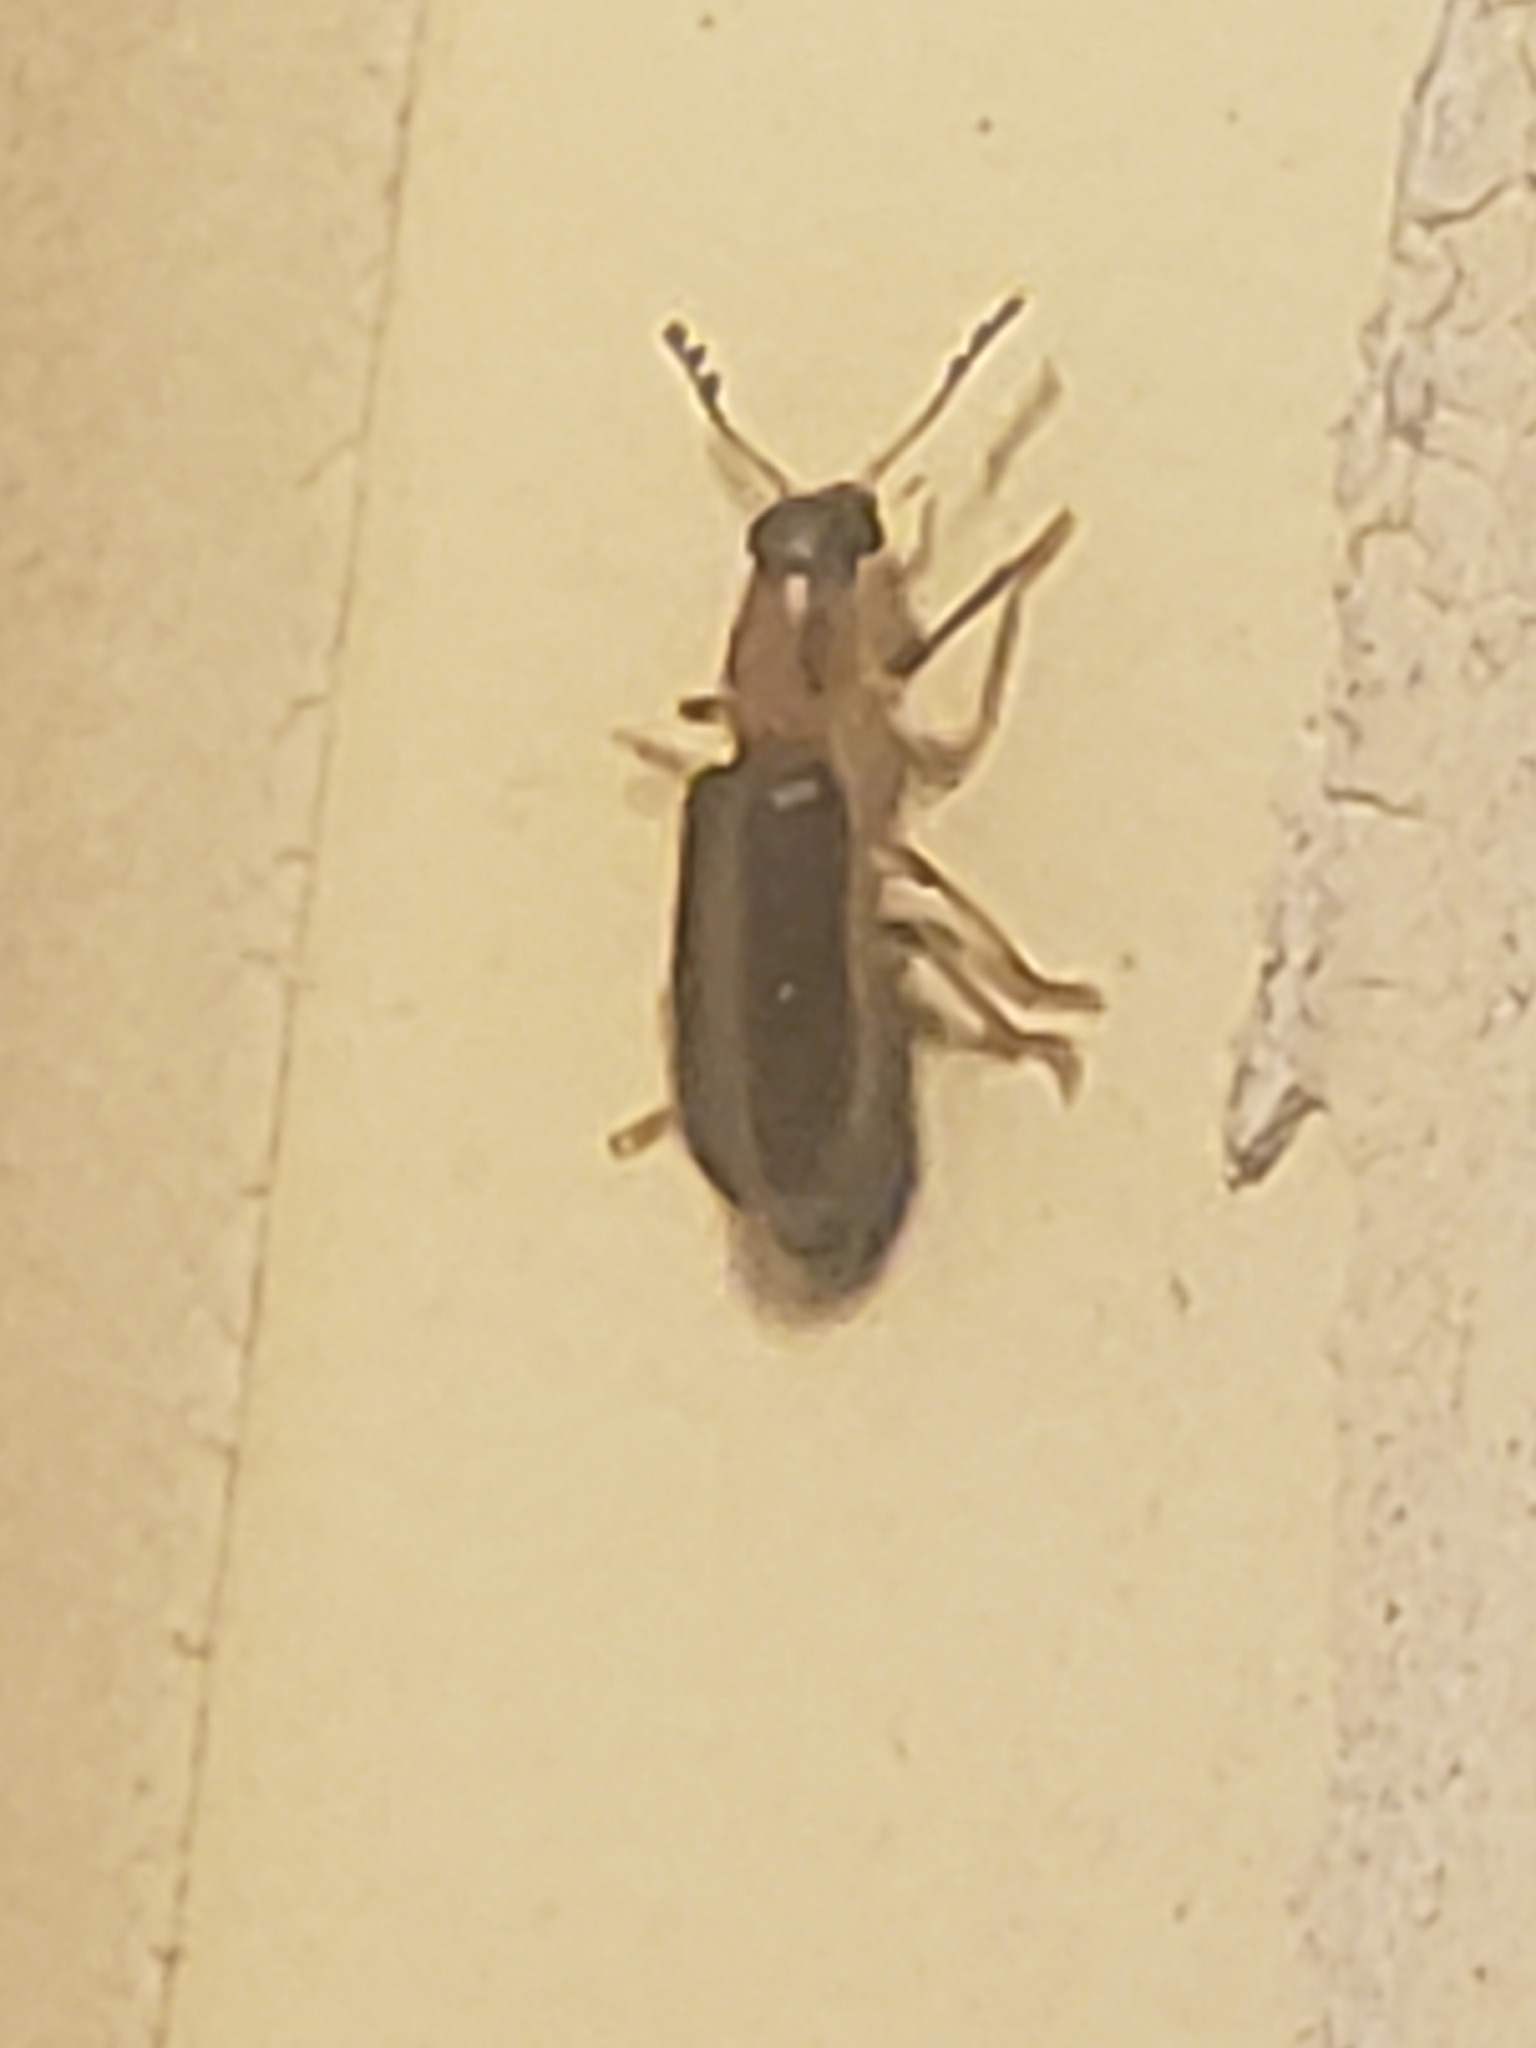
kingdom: Animalia
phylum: Arthropoda
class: Insecta
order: Coleoptera
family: Cleridae
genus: Cregya
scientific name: Cregya oculata
